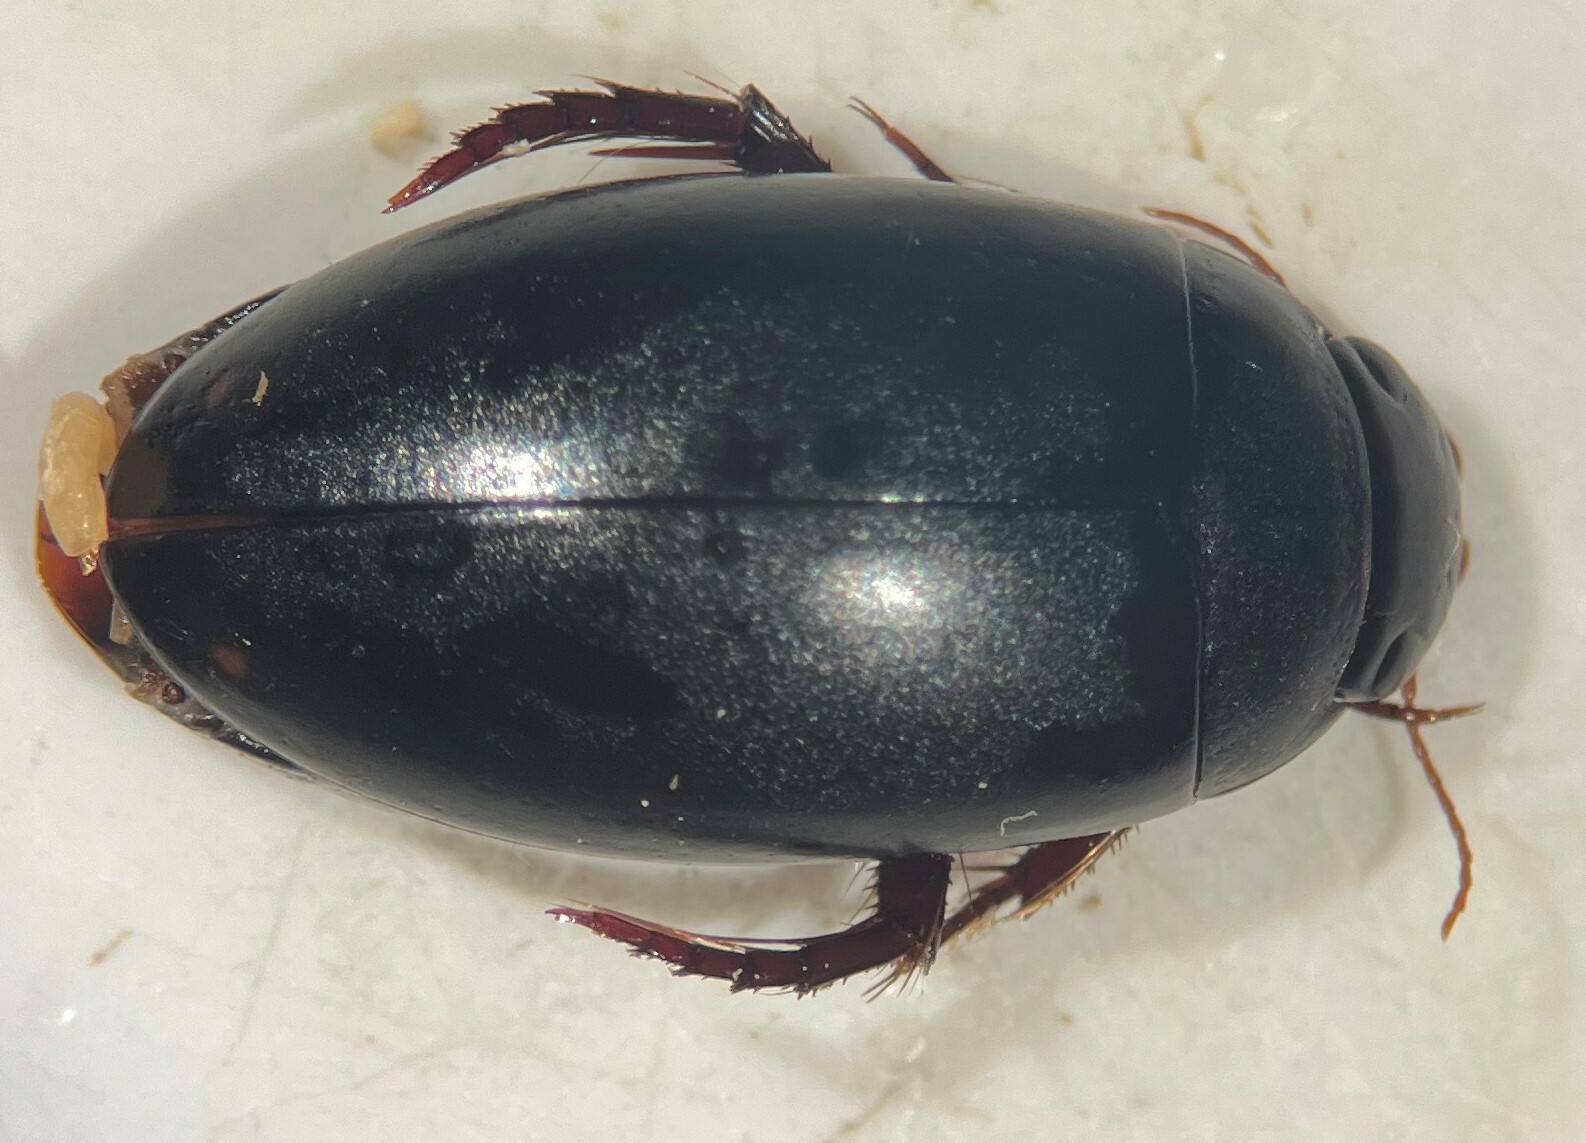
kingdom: Animalia
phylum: Arthropoda
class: Insecta
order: Coleoptera
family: Dytiscidae
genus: Ilybius
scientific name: Ilybius ignarus
